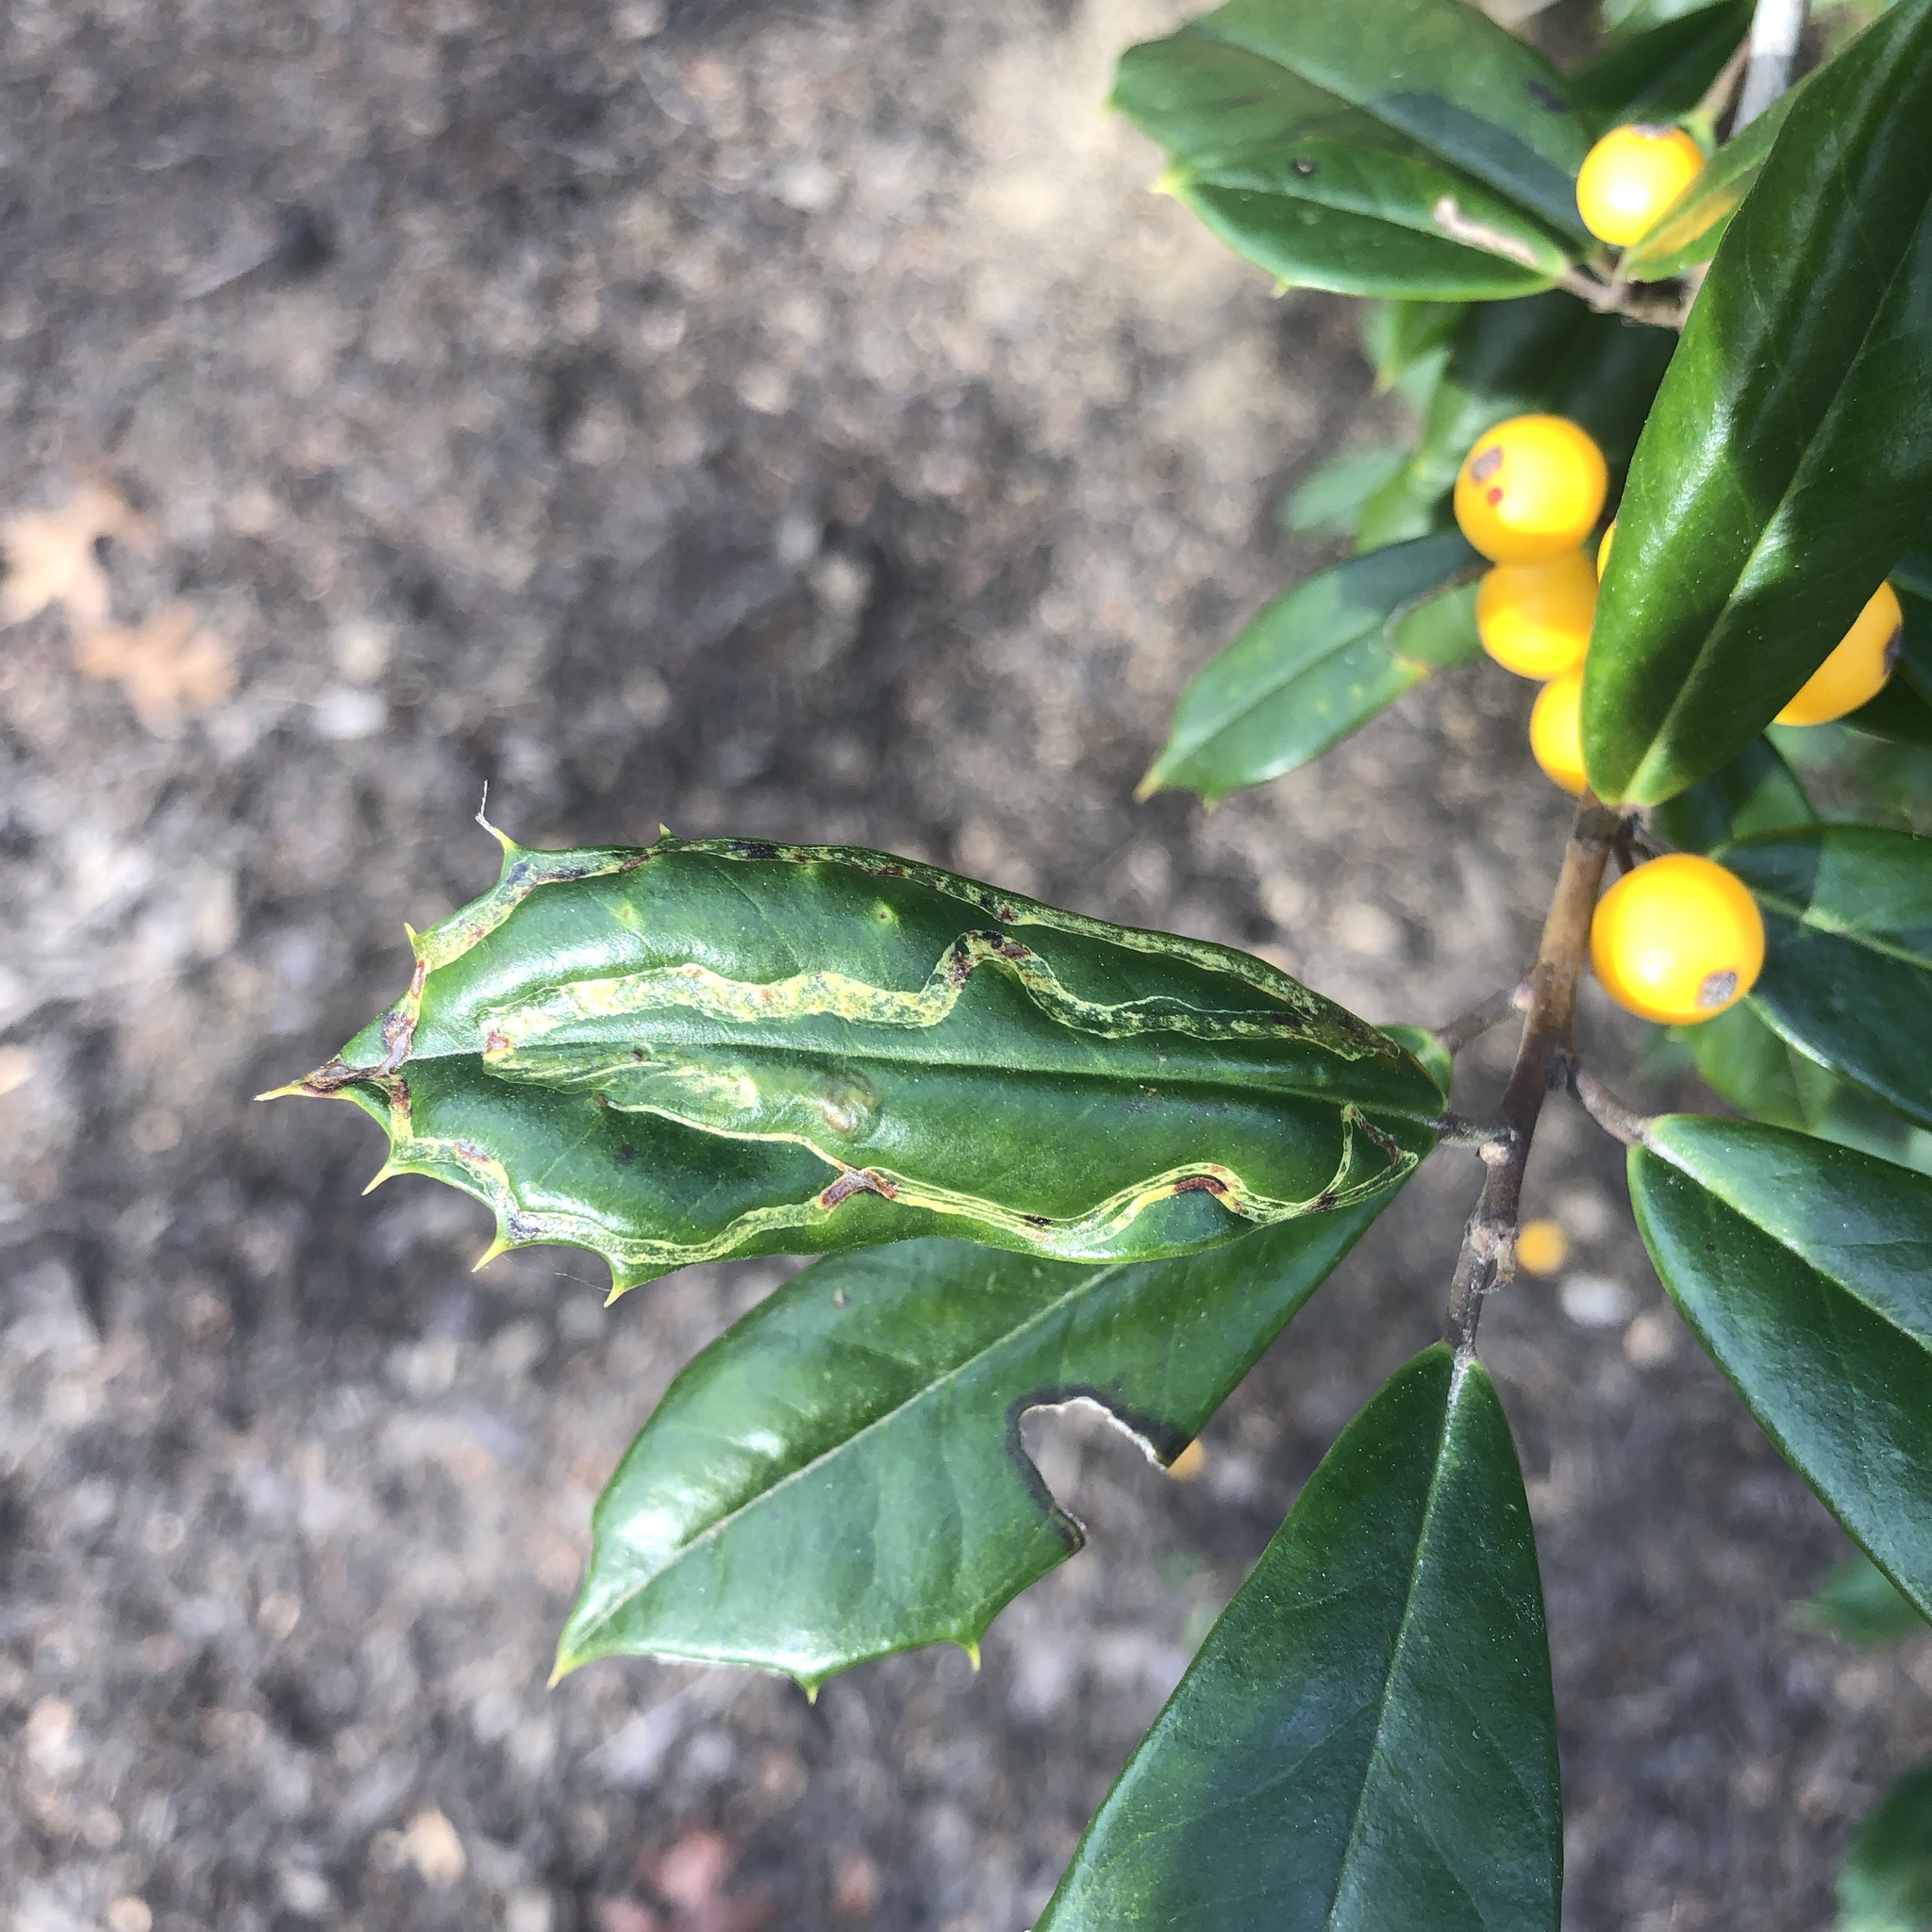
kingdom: Animalia
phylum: Arthropoda
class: Insecta
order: Diptera
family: Agromyzidae
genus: Phytomyza
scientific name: Phytomyza opacae
